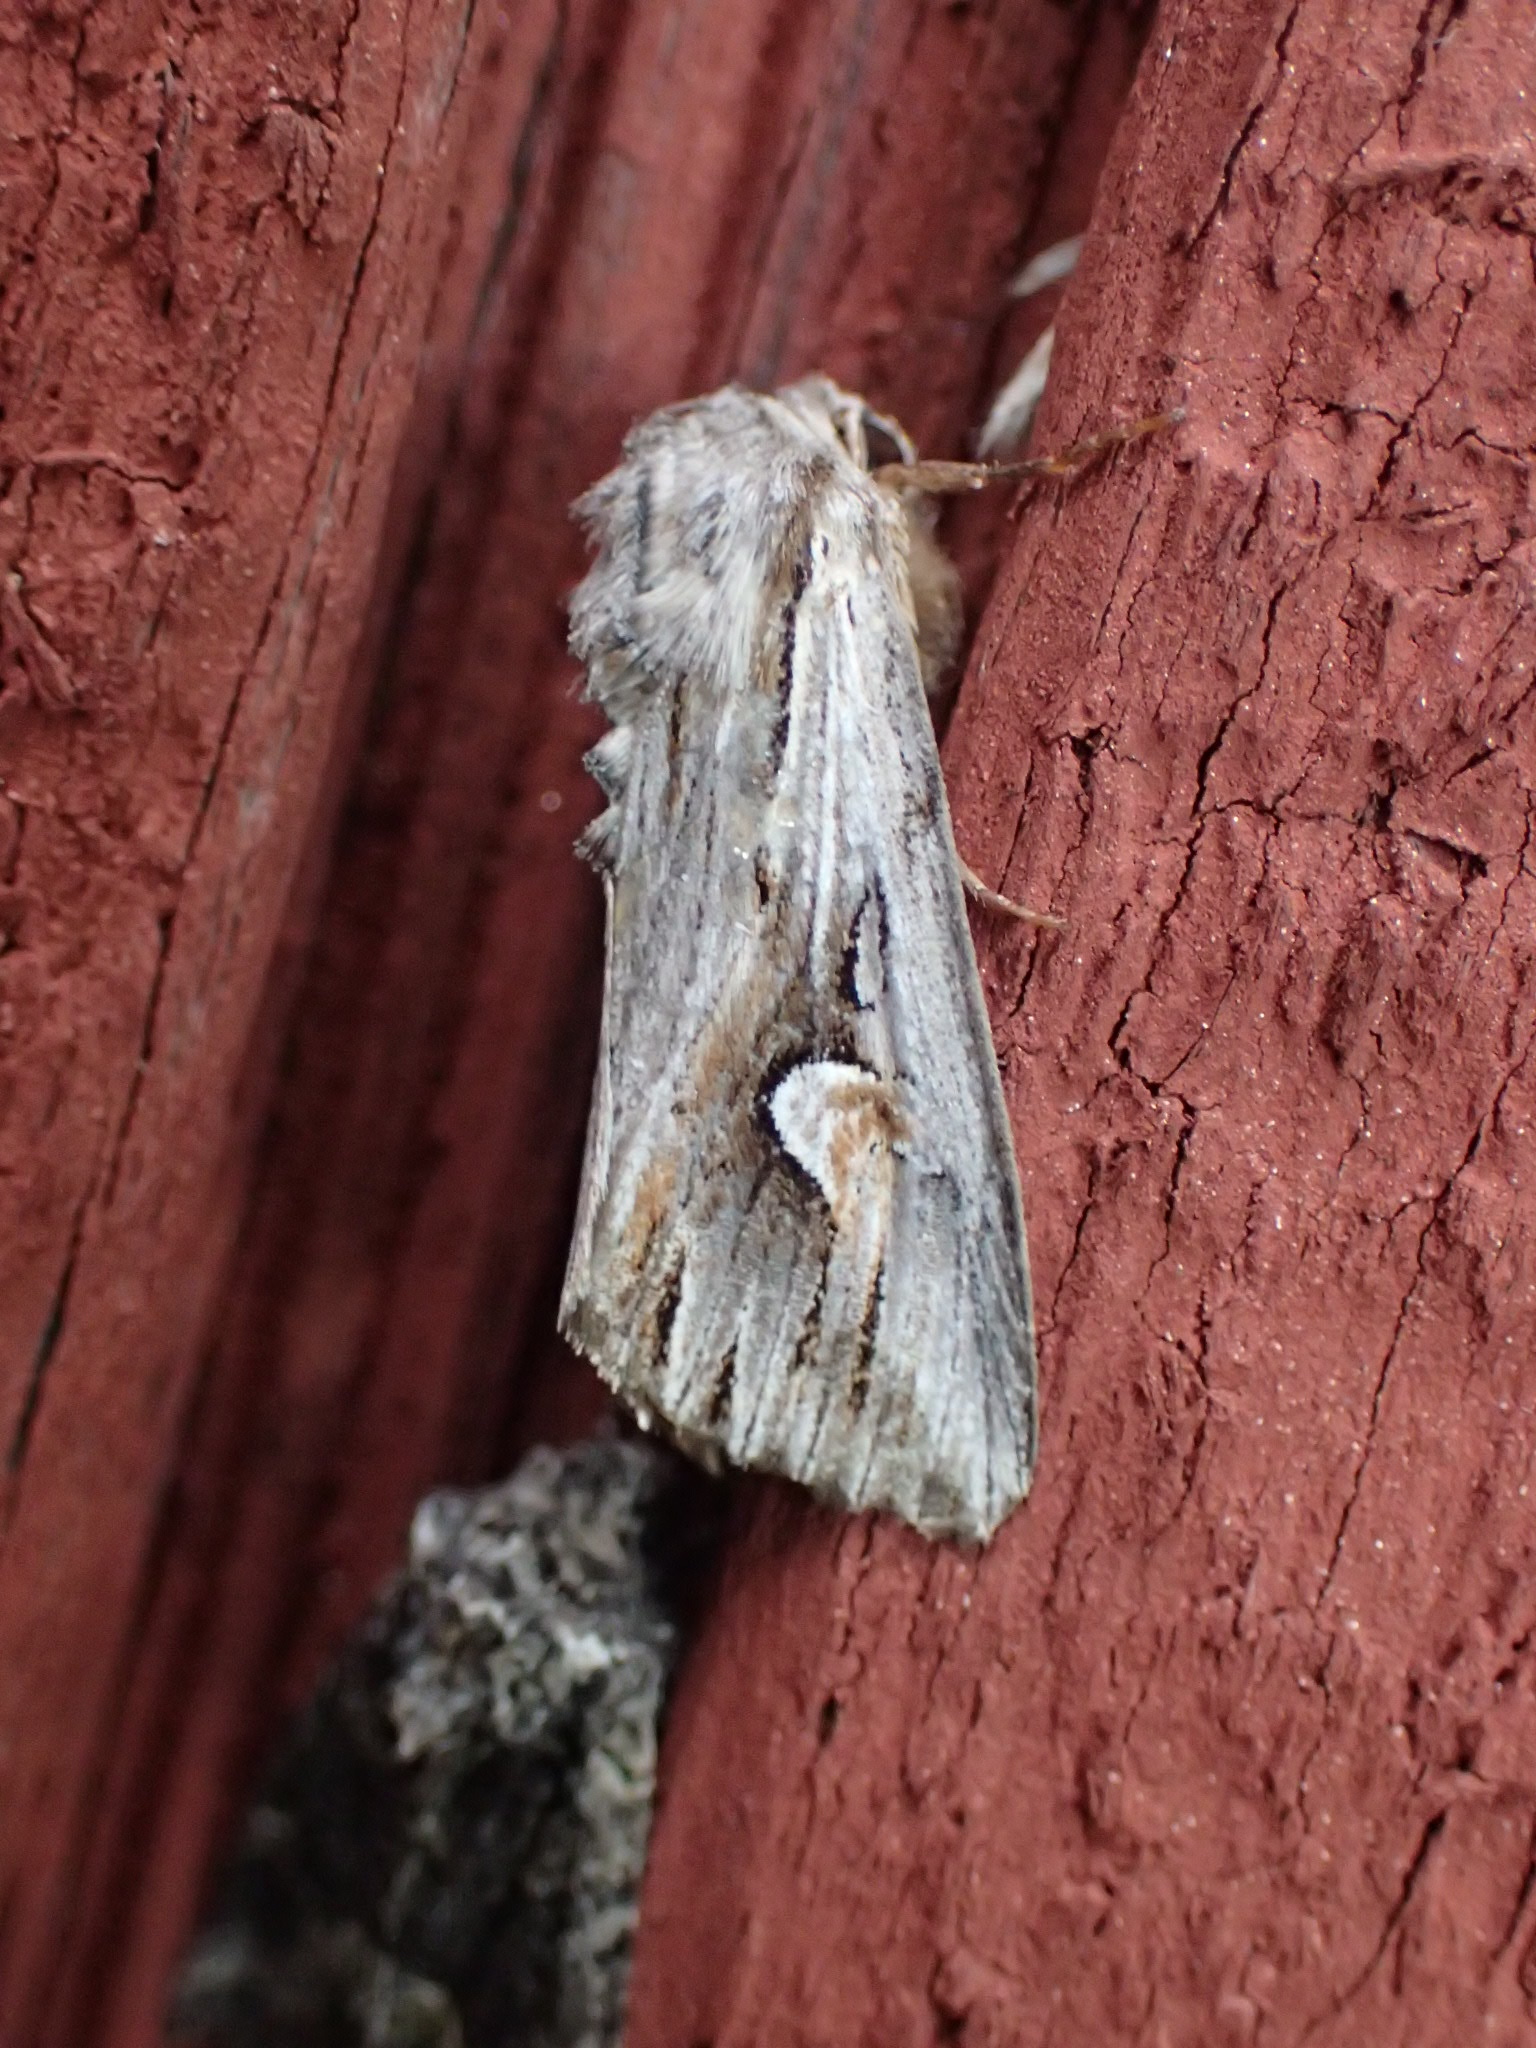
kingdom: Animalia
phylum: Arthropoda
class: Insecta
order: Lepidoptera
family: Noctuidae
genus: Nedra
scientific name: Nedra ramosula
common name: Gray half-spot
